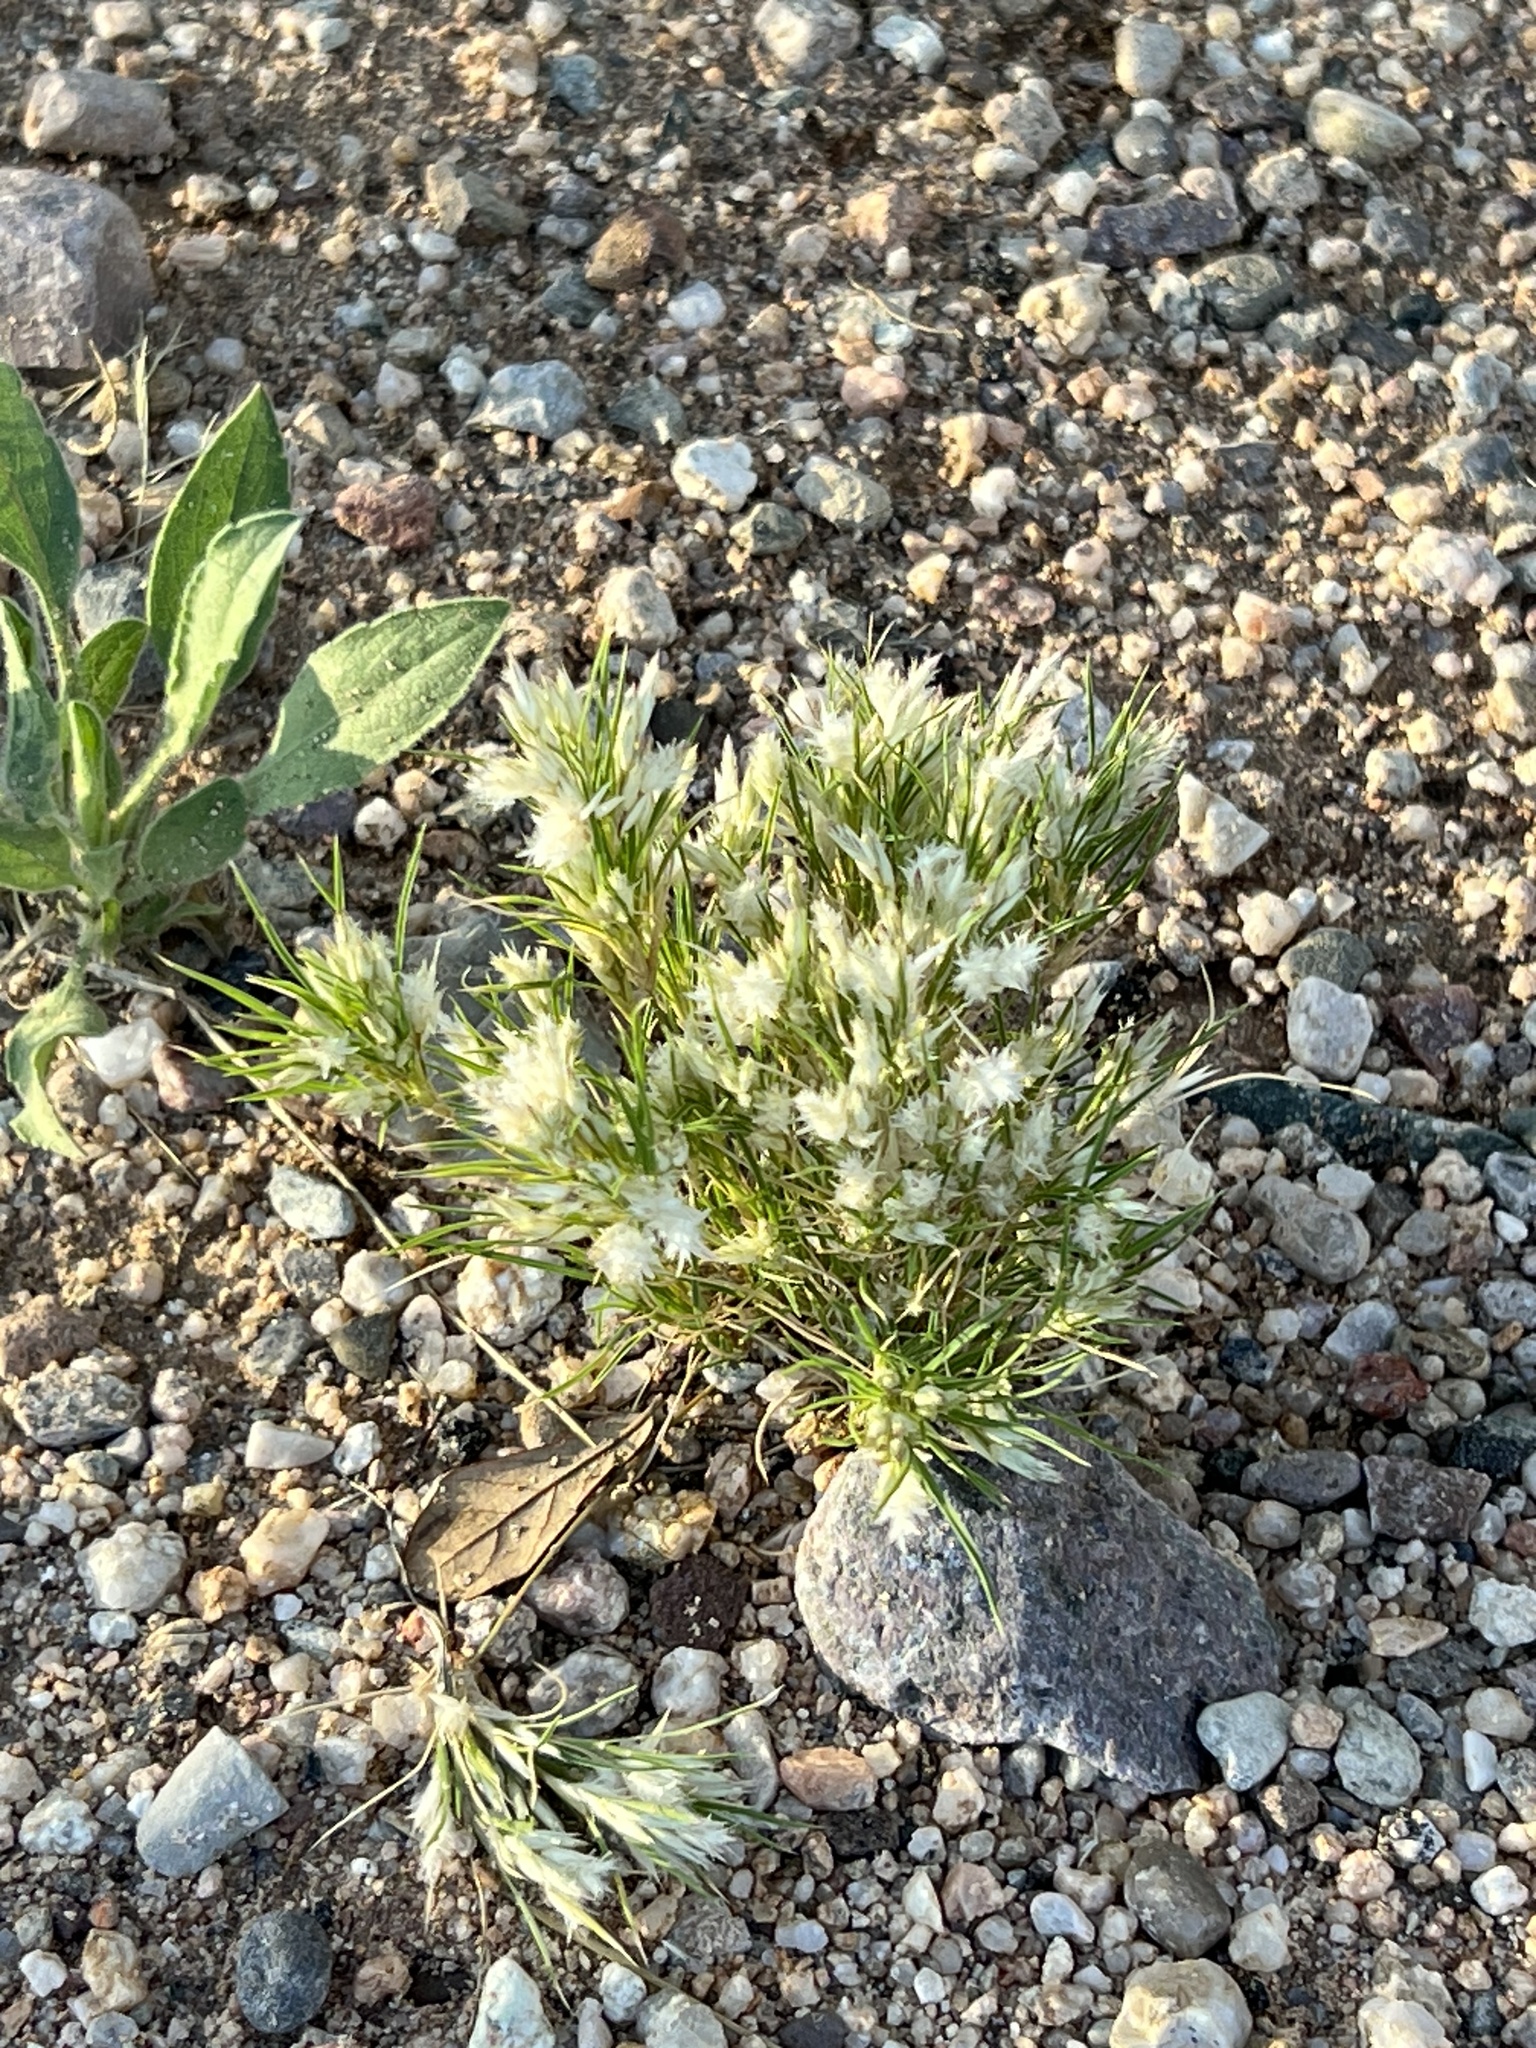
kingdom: Plantae
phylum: Tracheophyta
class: Liliopsida
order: Poales
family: Poaceae
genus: Dasyochloa
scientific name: Dasyochloa pulchella
